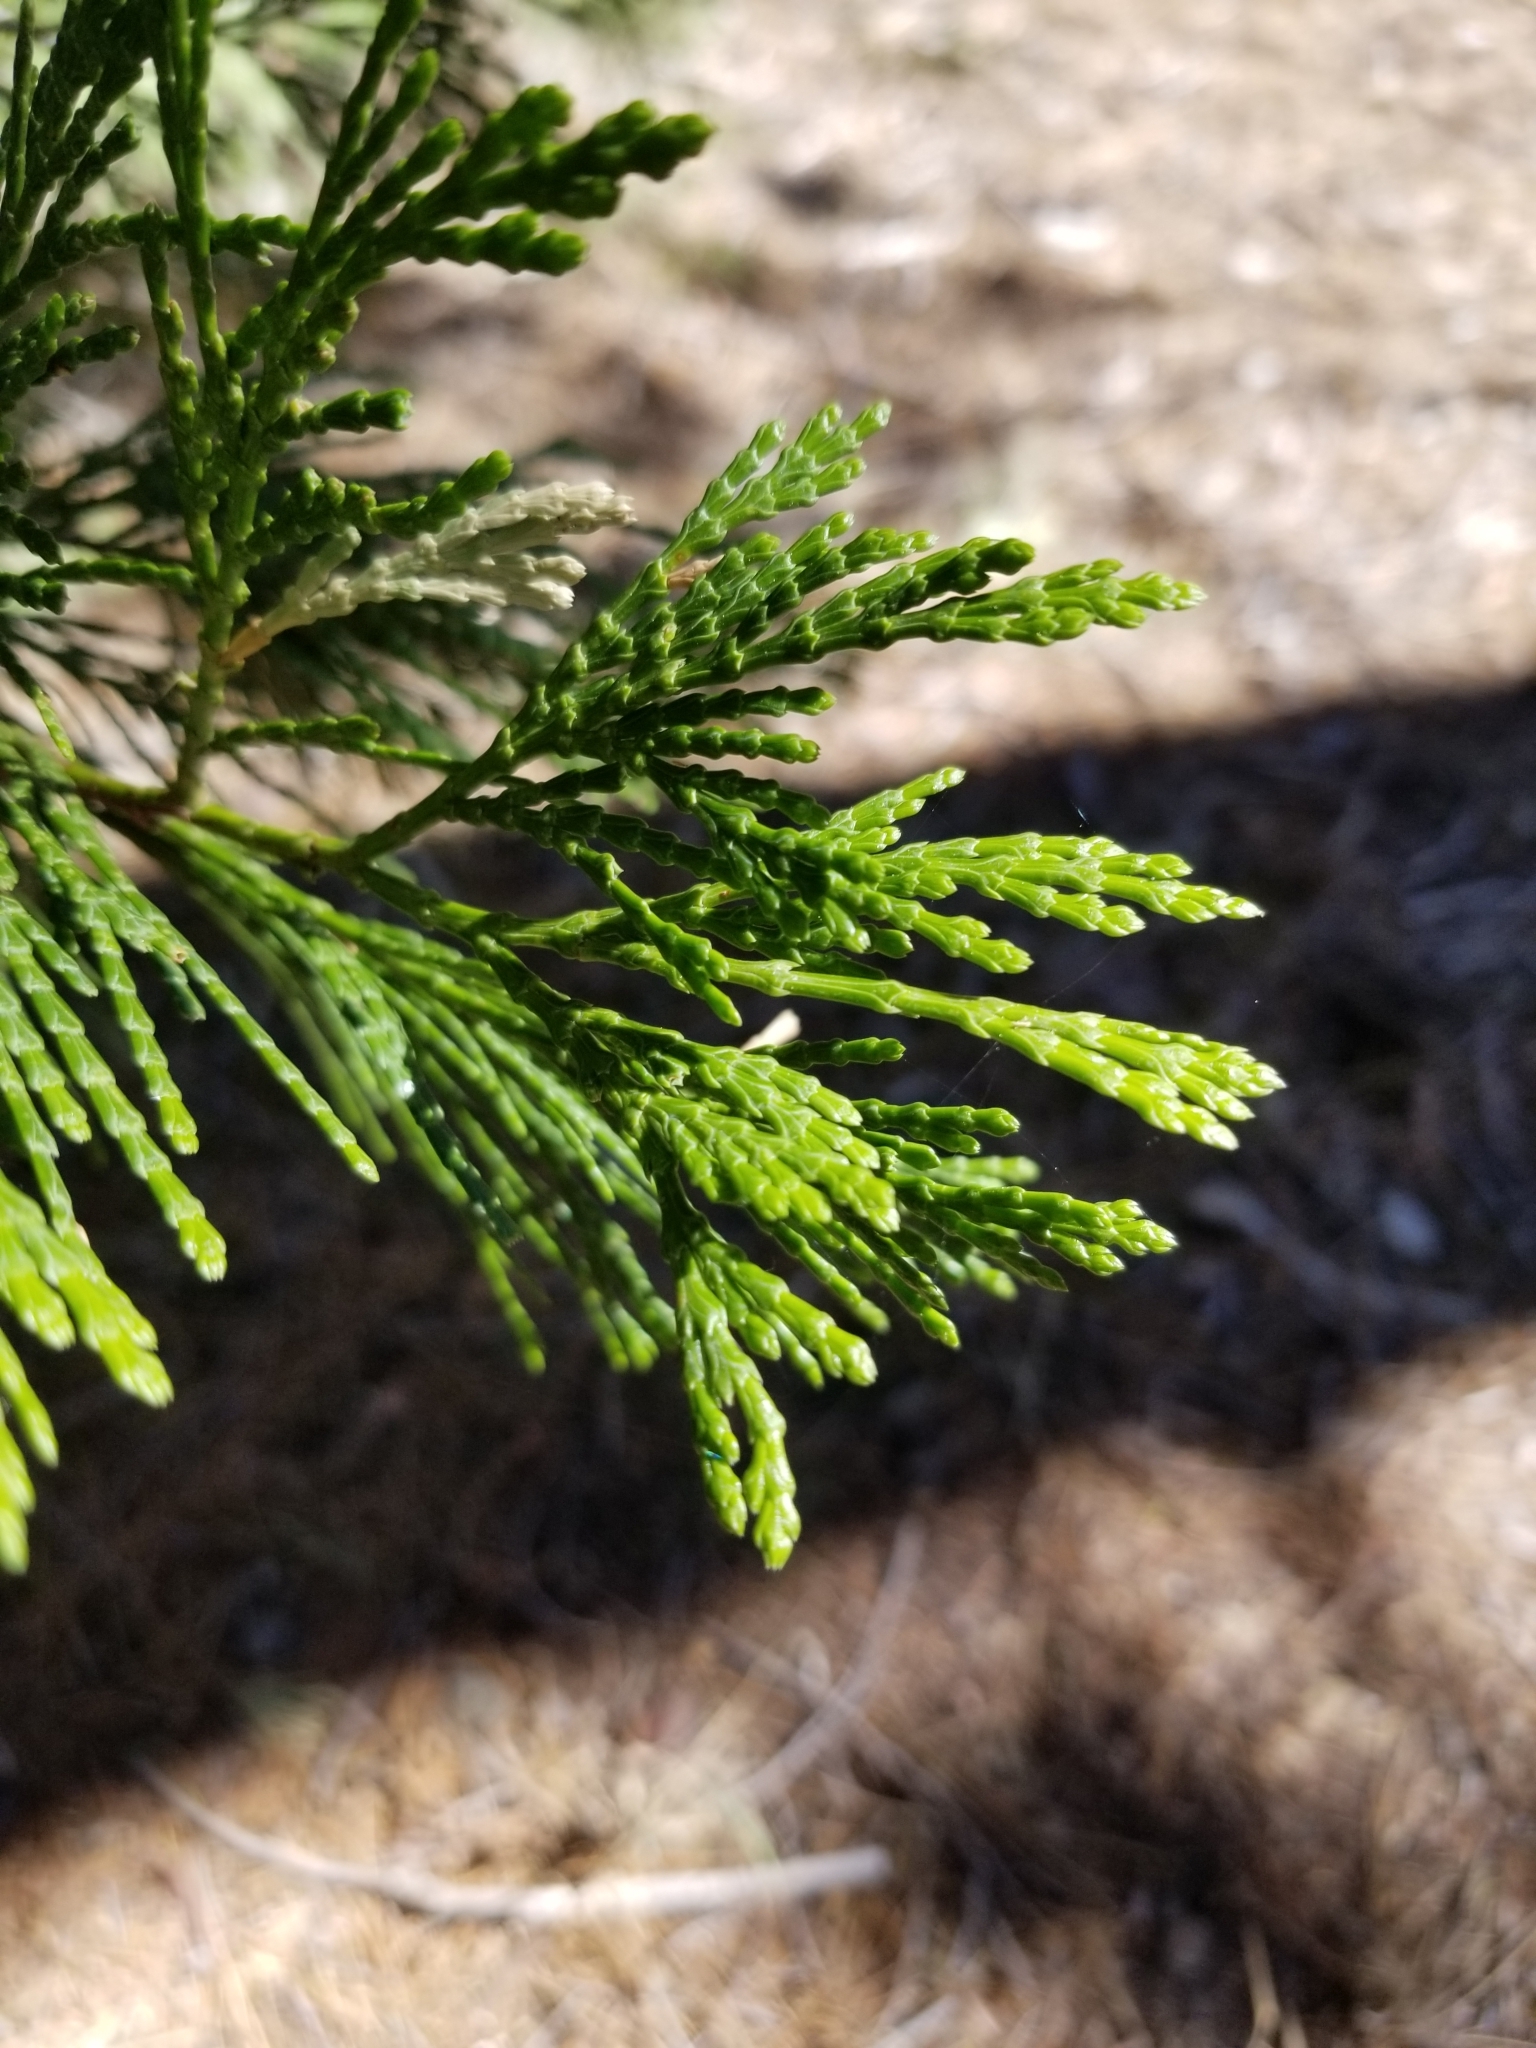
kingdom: Plantae
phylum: Tracheophyta
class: Pinopsida
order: Pinales
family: Cupressaceae
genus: Calocedrus
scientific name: Calocedrus decurrens
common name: Californian incense-cedar
